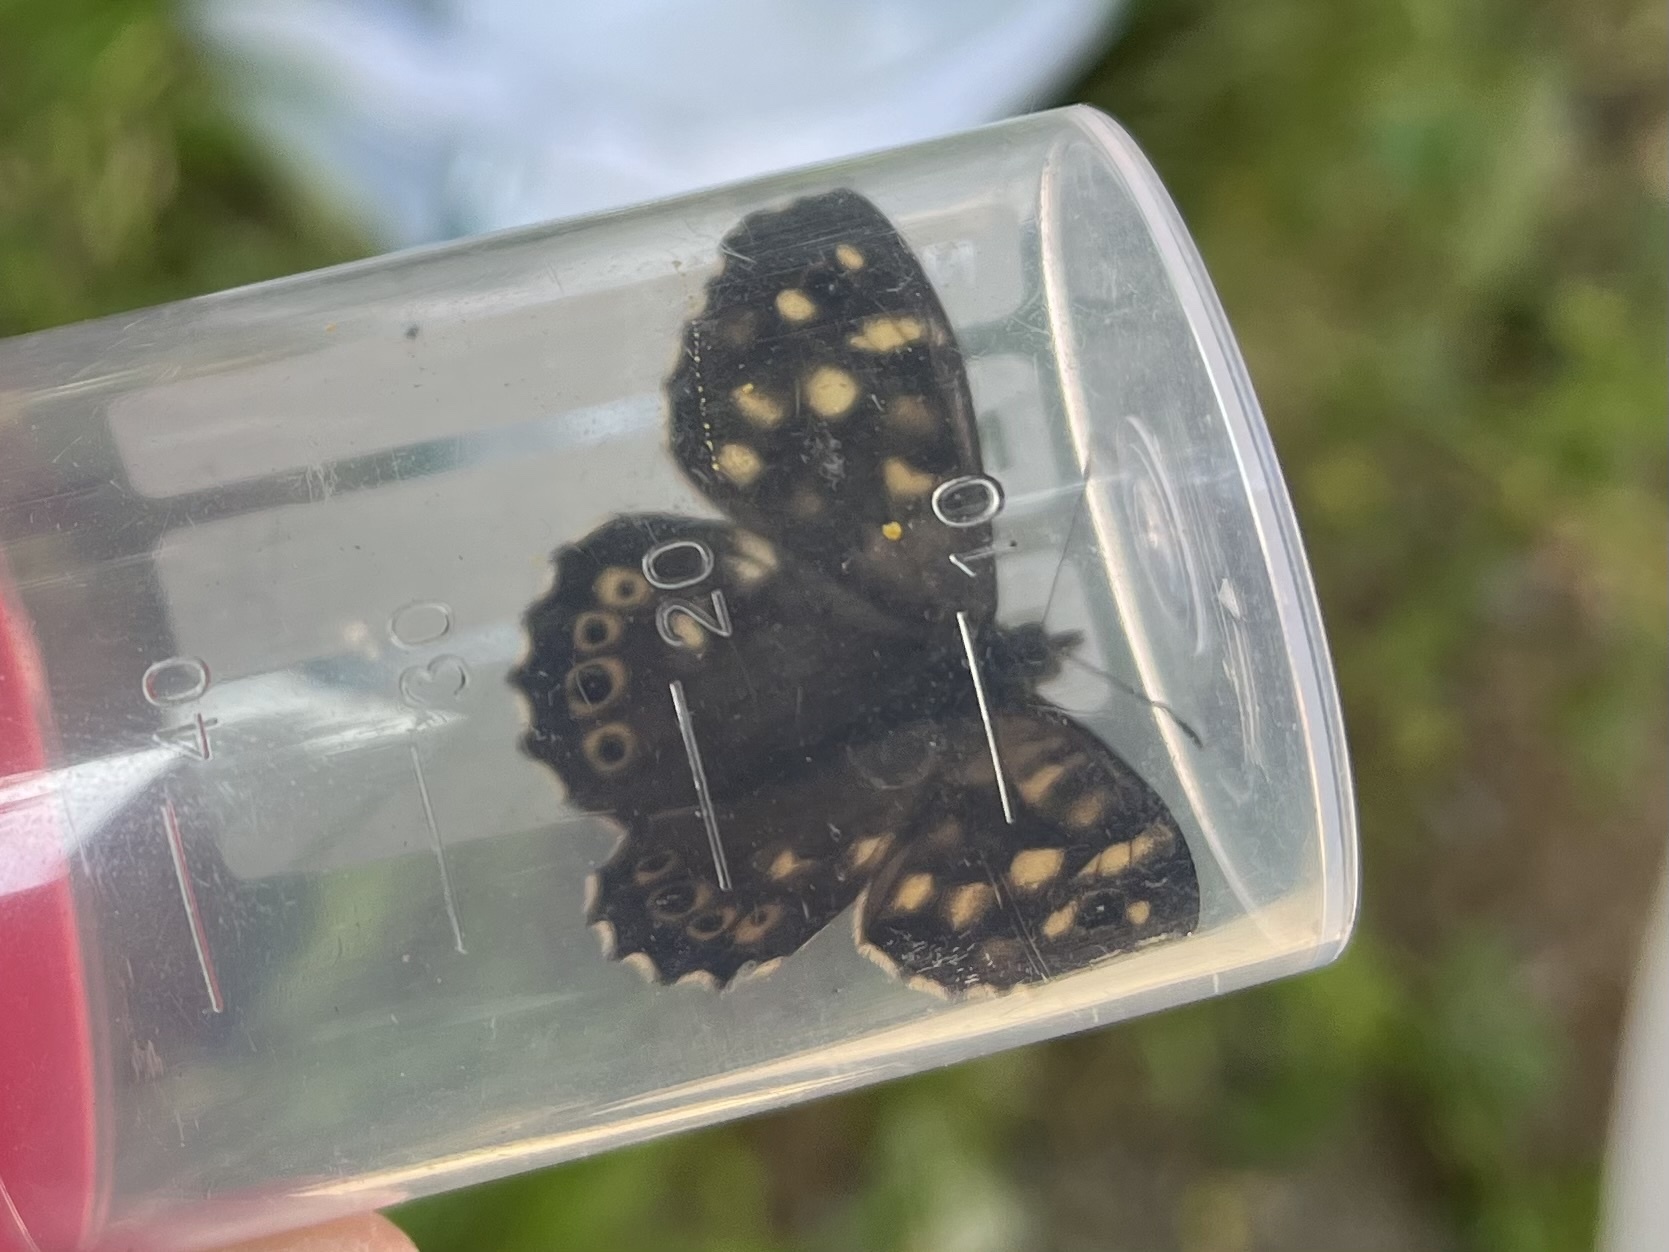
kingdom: Animalia
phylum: Arthropoda
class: Insecta
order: Lepidoptera
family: Nymphalidae
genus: Pararge
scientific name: Pararge aegeria
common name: Speckled wood
